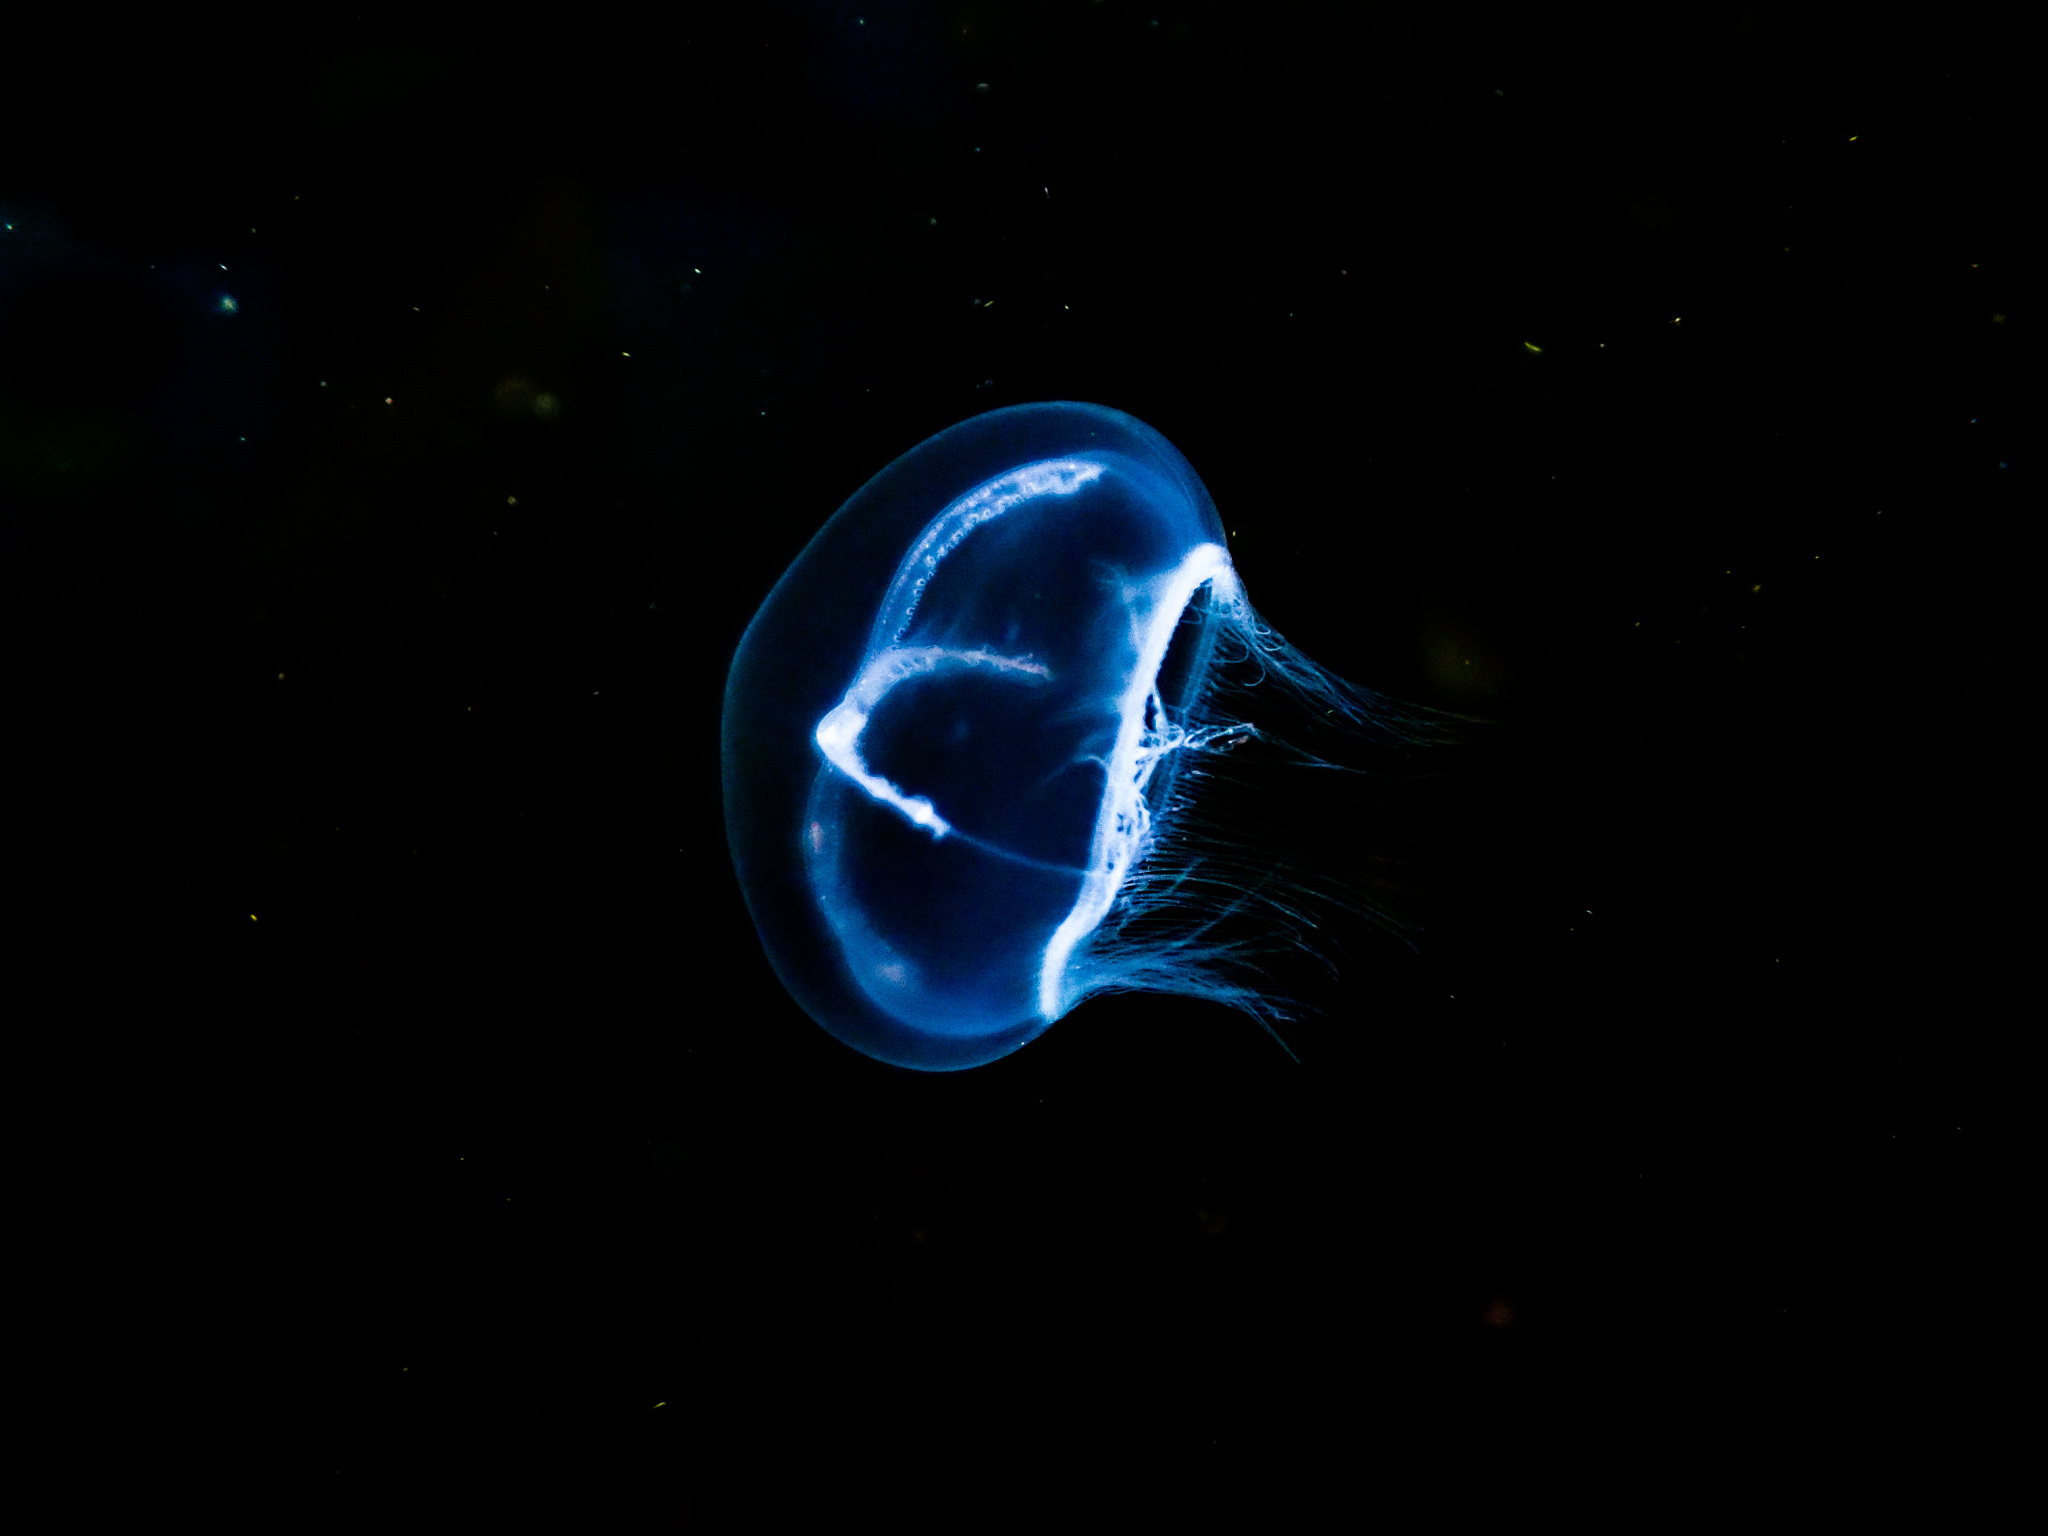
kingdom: Animalia
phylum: Cnidaria
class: Hydrozoa
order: Leptothecata
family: Laodiceidae
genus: Staurostoma
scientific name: Staurostoma mertensii
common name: Whitecross jellyfish
